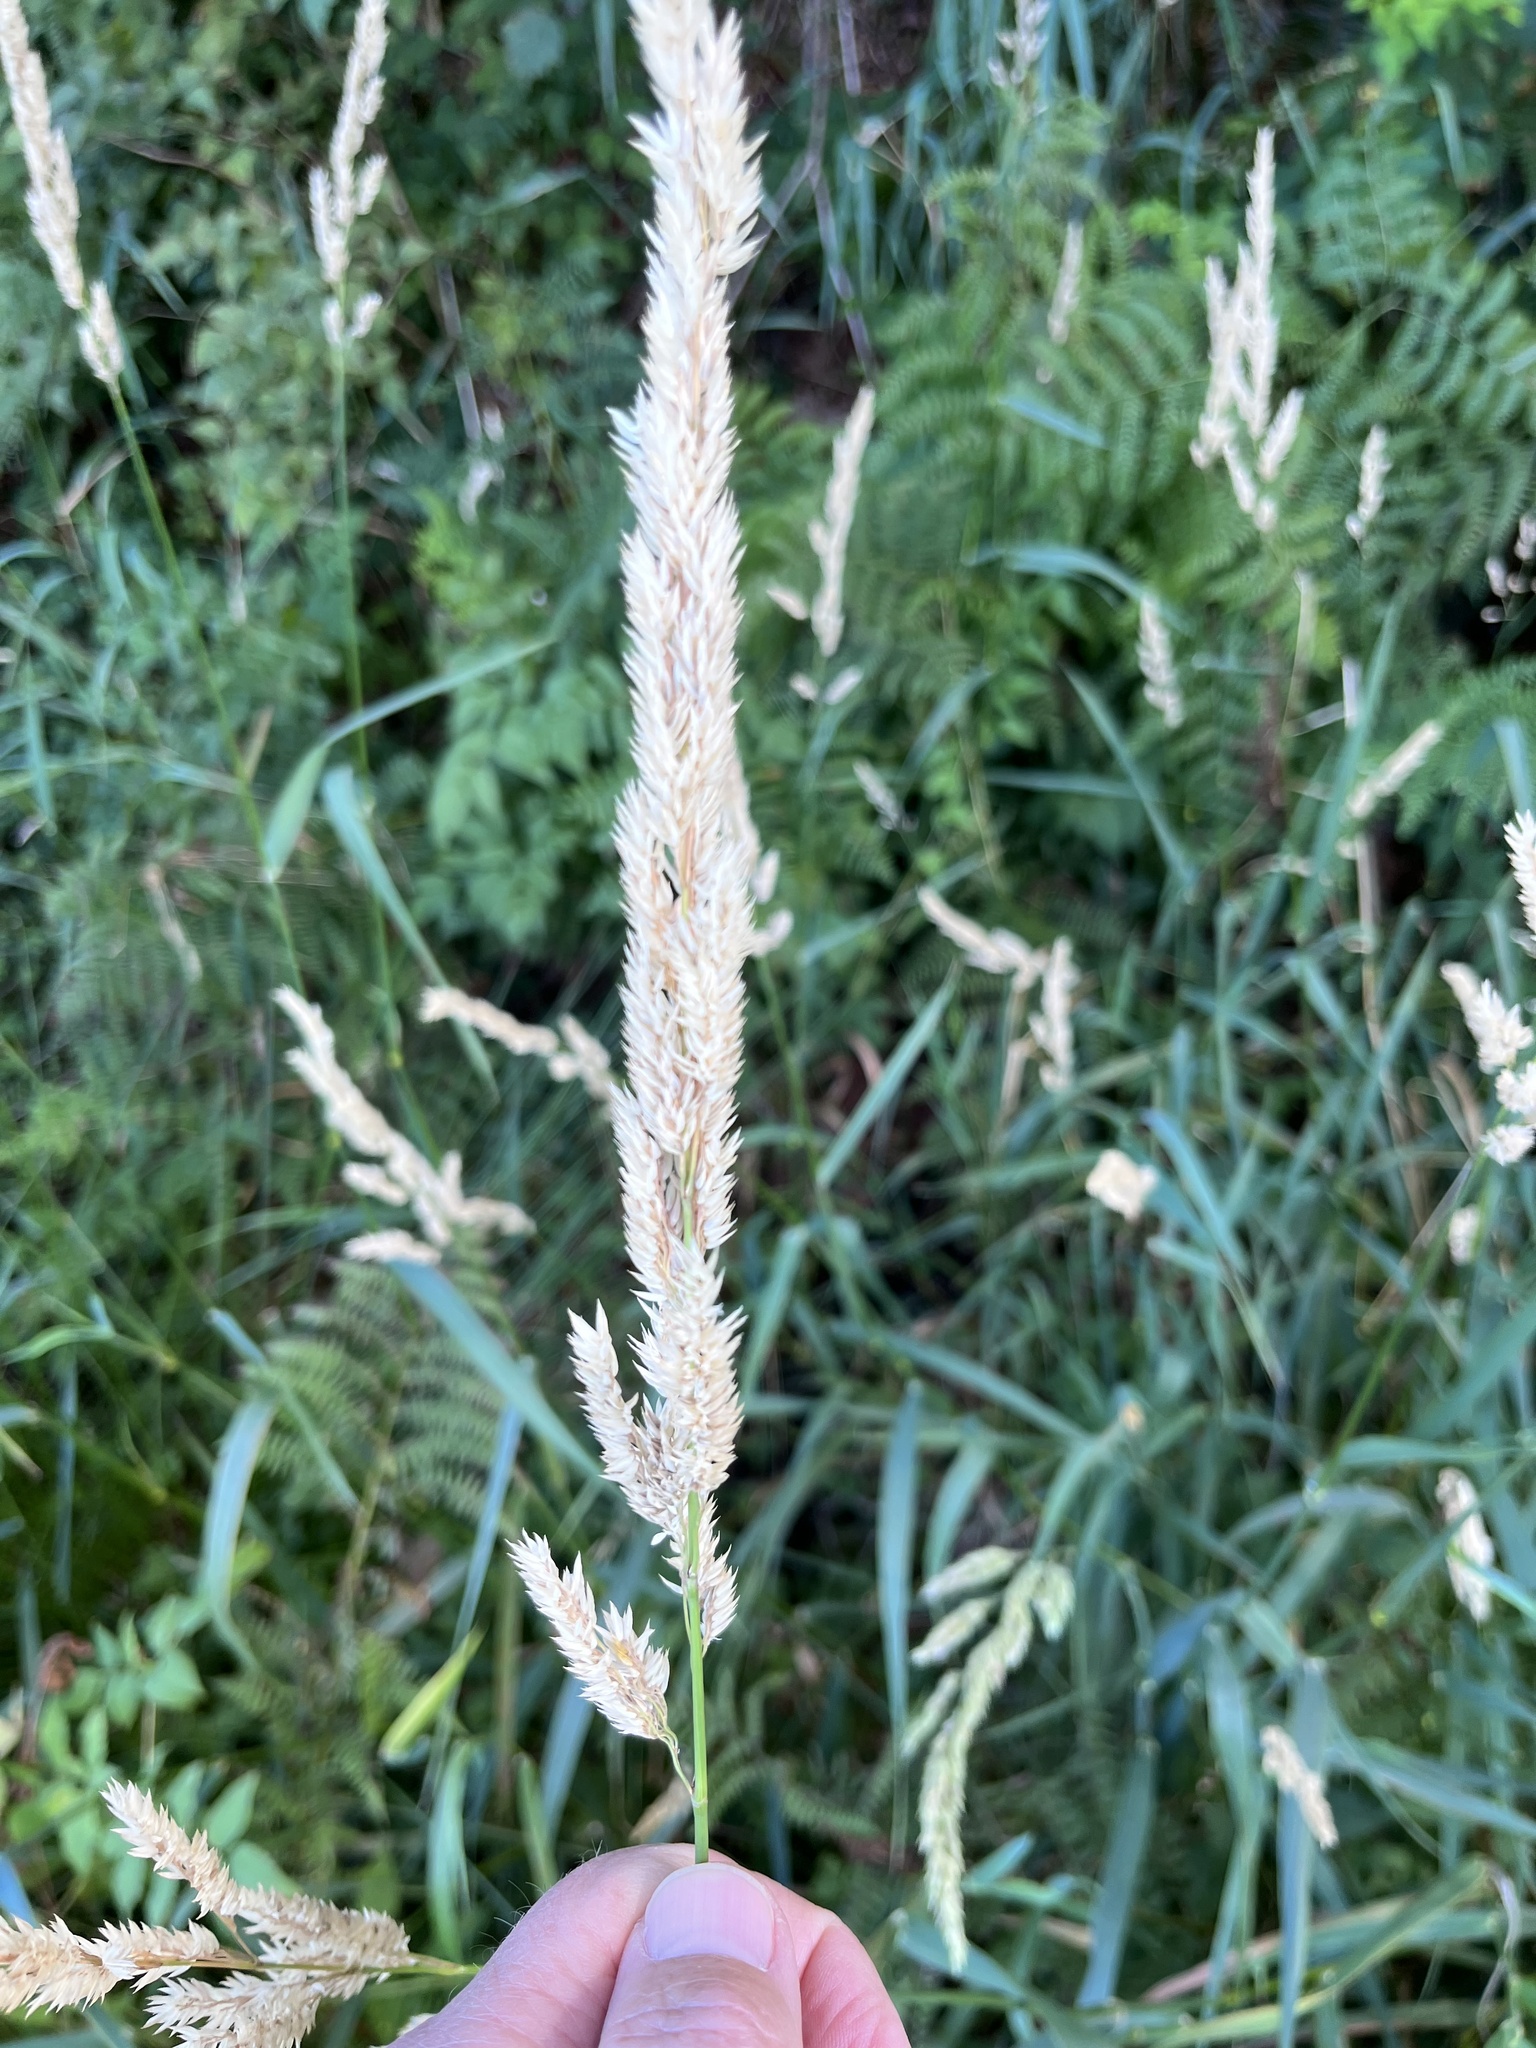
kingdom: Plantae
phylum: Tracheophyta
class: Liliopsida
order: Poales
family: Poaceae
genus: Phalaris
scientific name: Phalaris arundinacea
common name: Reed canary-grass
